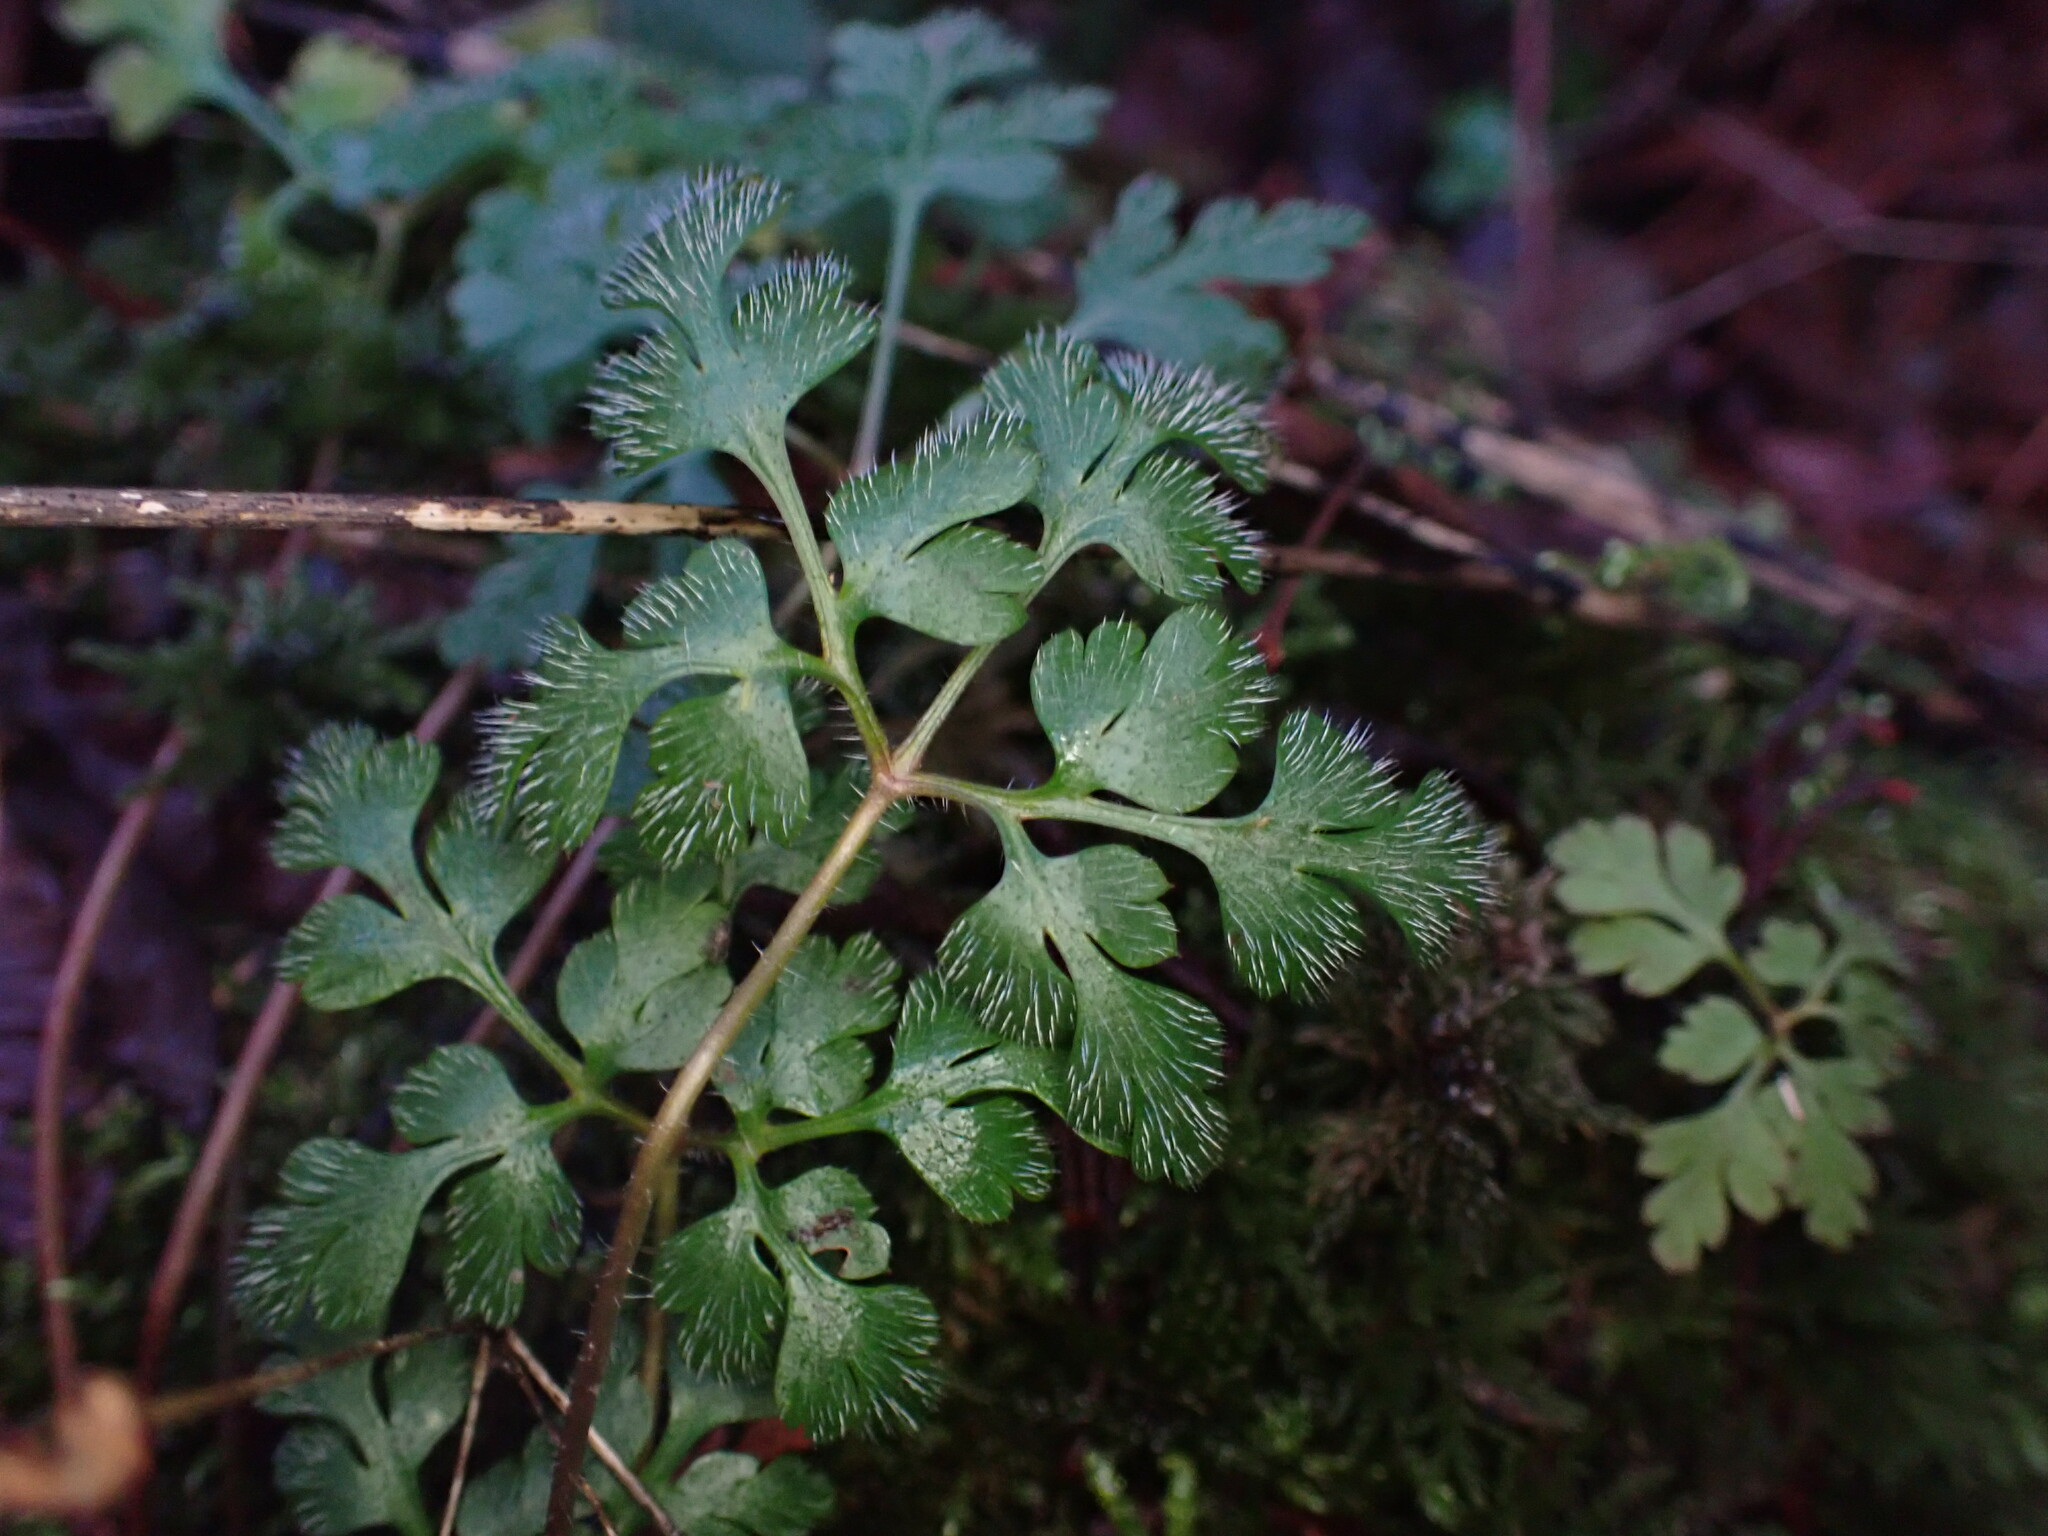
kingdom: Plantae
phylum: Tracheophyta
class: Magnoliopsida
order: Geraniales
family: Geraniaceae
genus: Geranium
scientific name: Geranium robertianum
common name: Herb-robert
